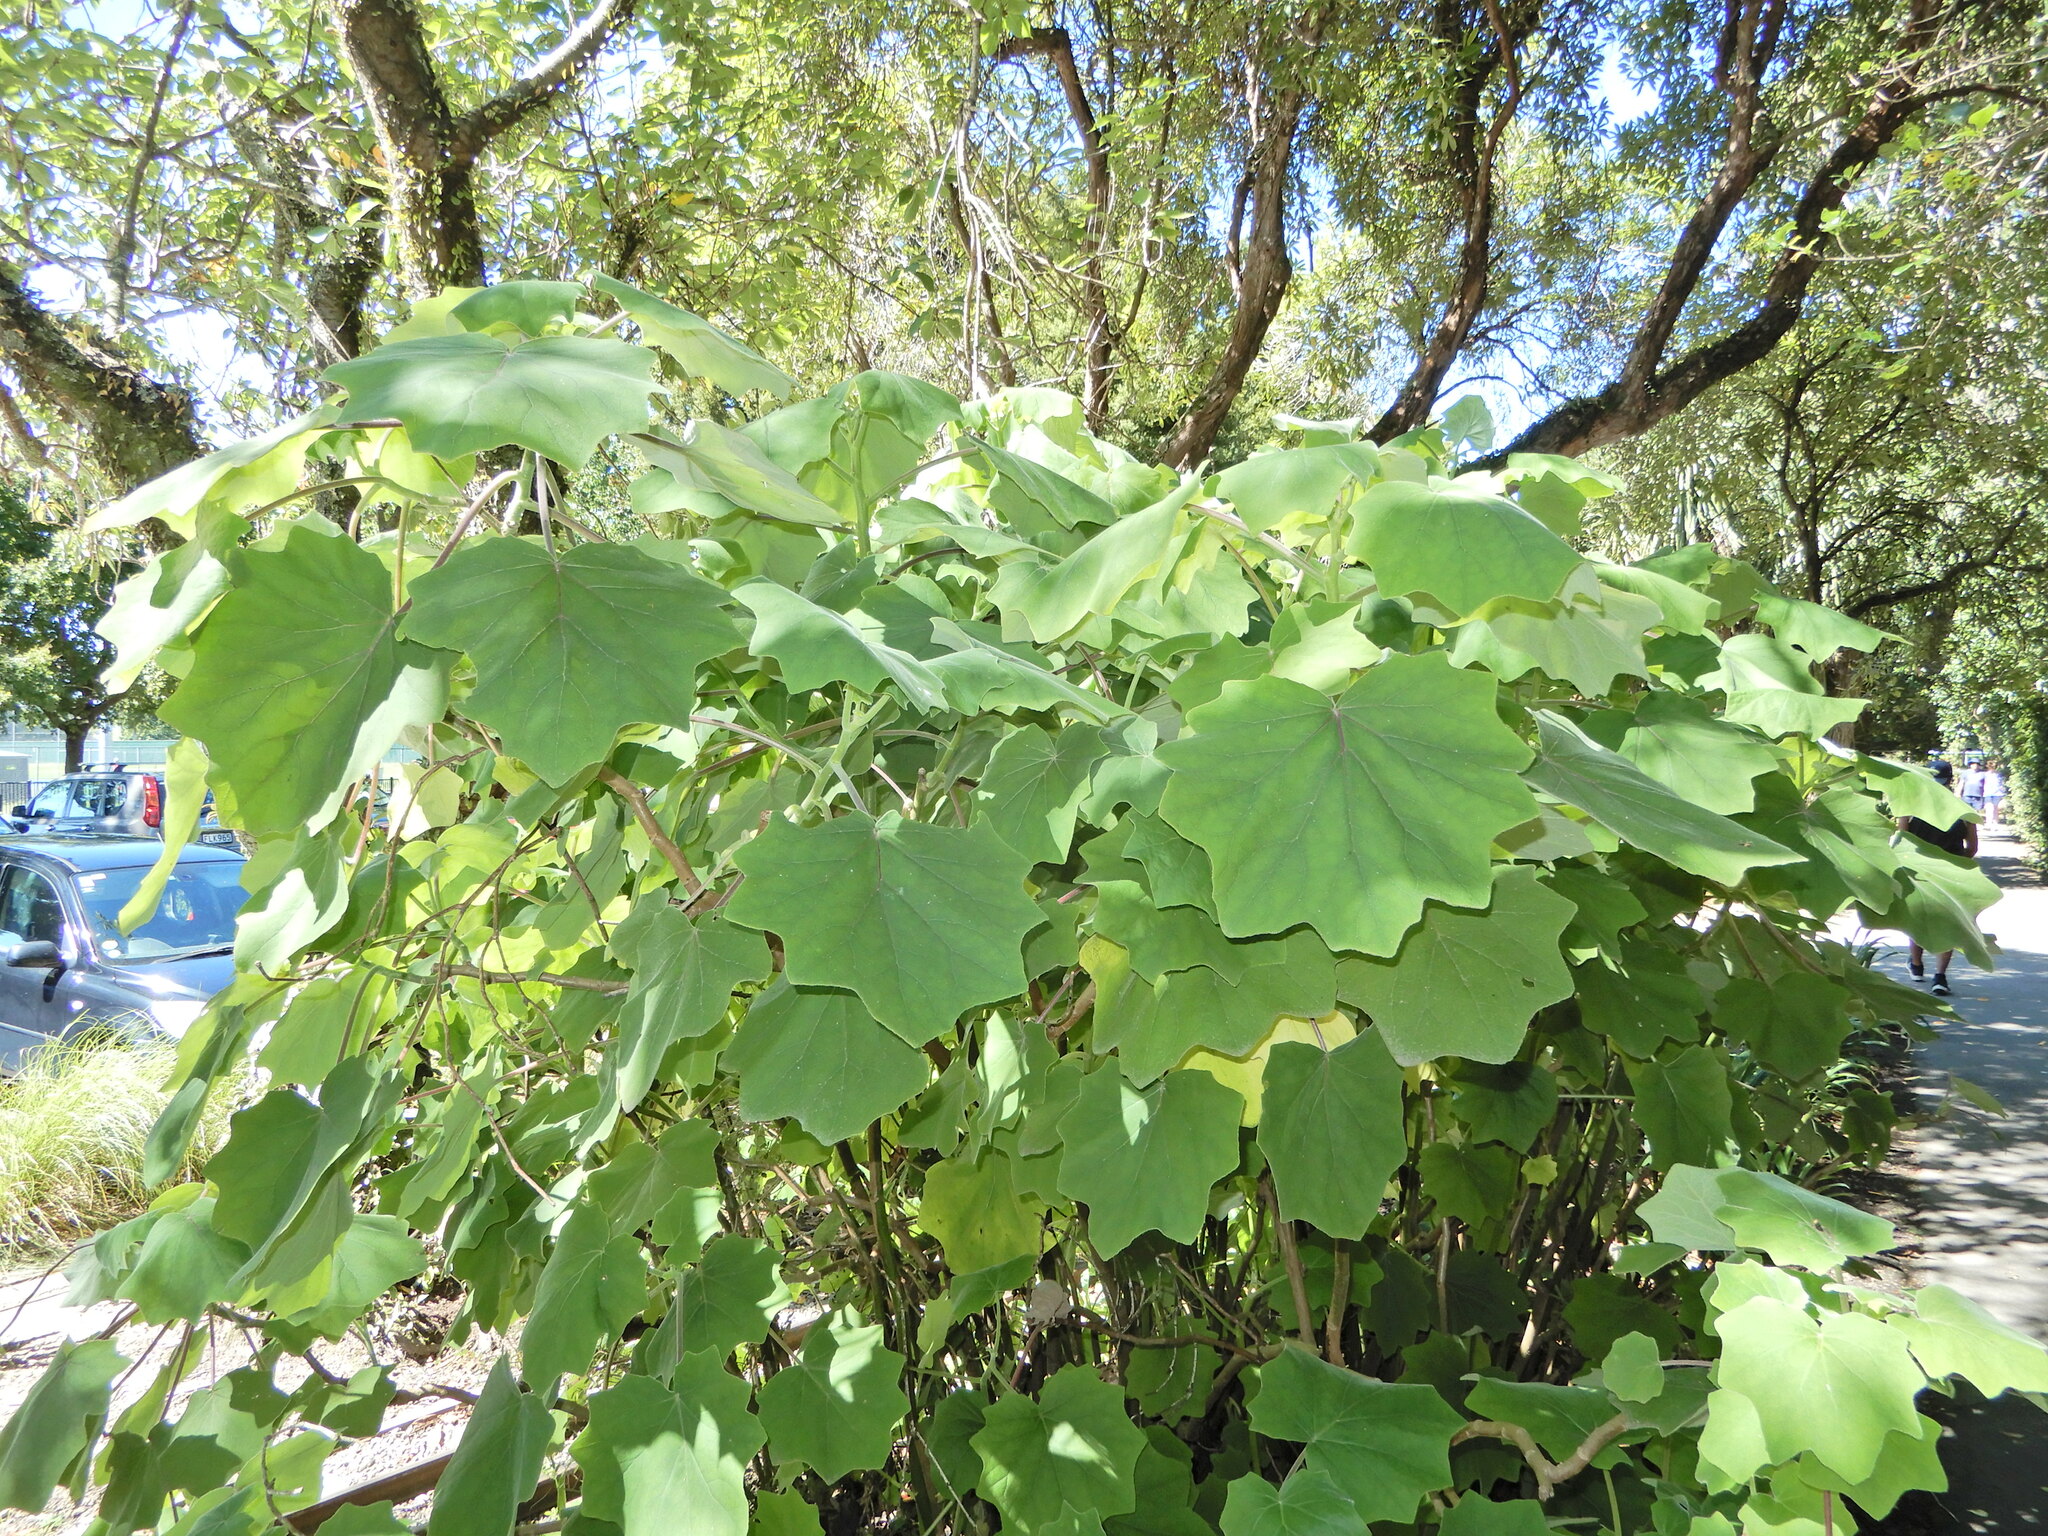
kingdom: Plantae
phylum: Tracheophyta
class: Magnoliopsida
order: Asterales
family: Asteraceae
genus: Roldana
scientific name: Roldana petasitis
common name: California-geranium
